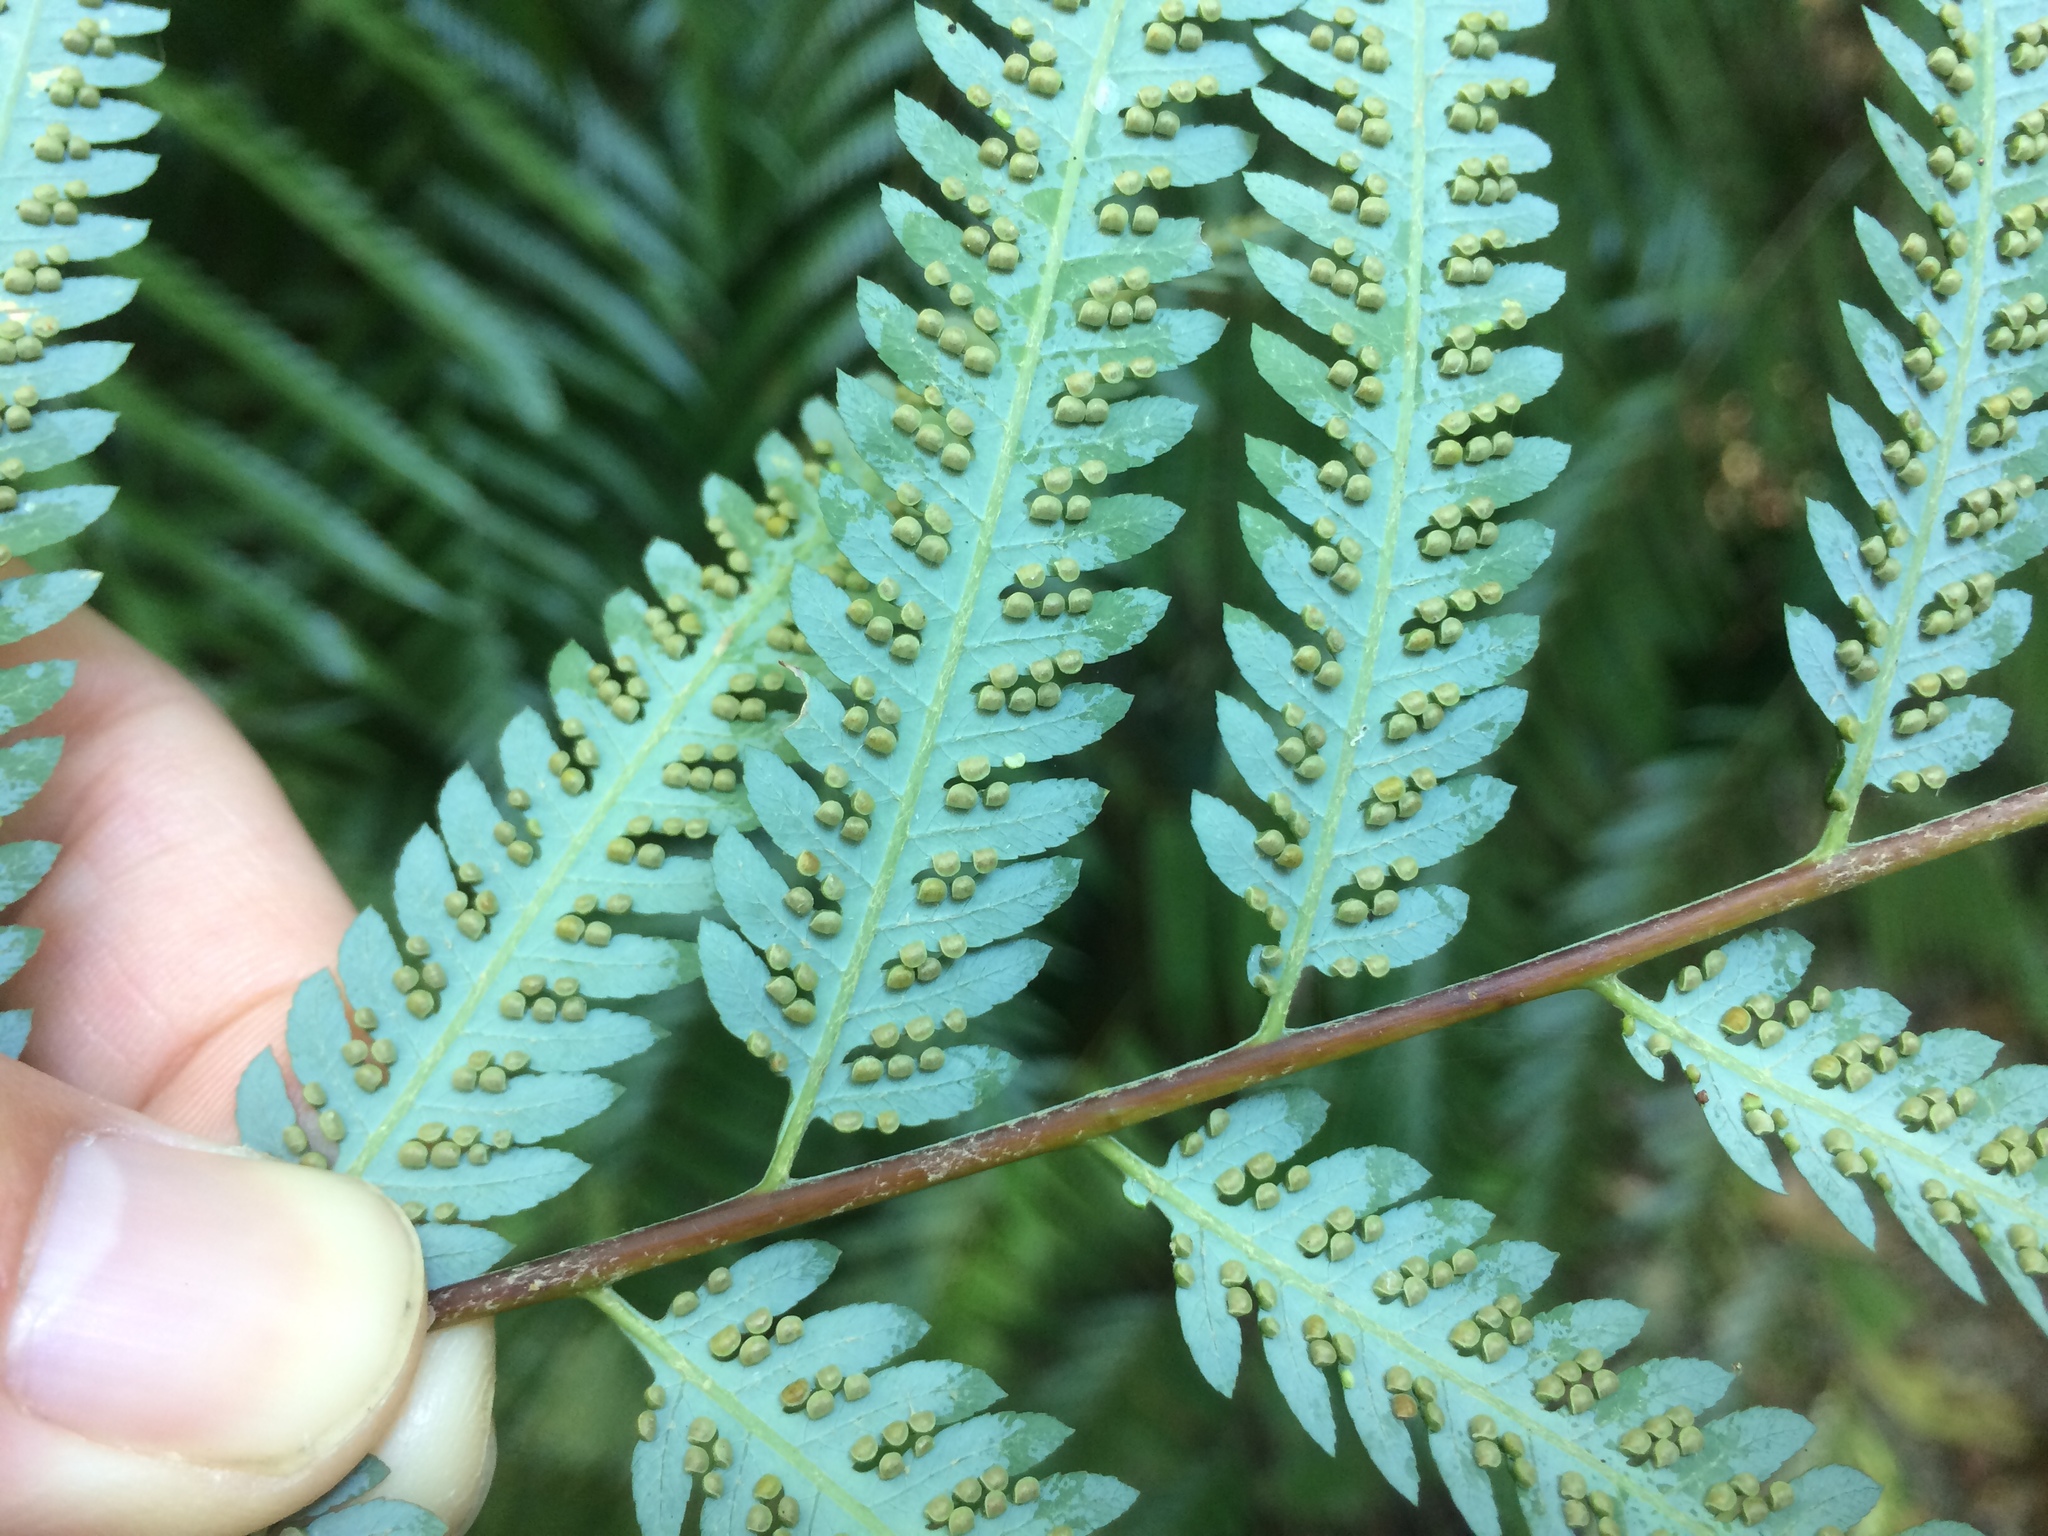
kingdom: Plantae
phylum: Tracheophyta
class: Polypodiopsida
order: Cyatheales
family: Cibotiaceae
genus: Cibotium
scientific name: Cibotium barometz
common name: Scythian-lamb
